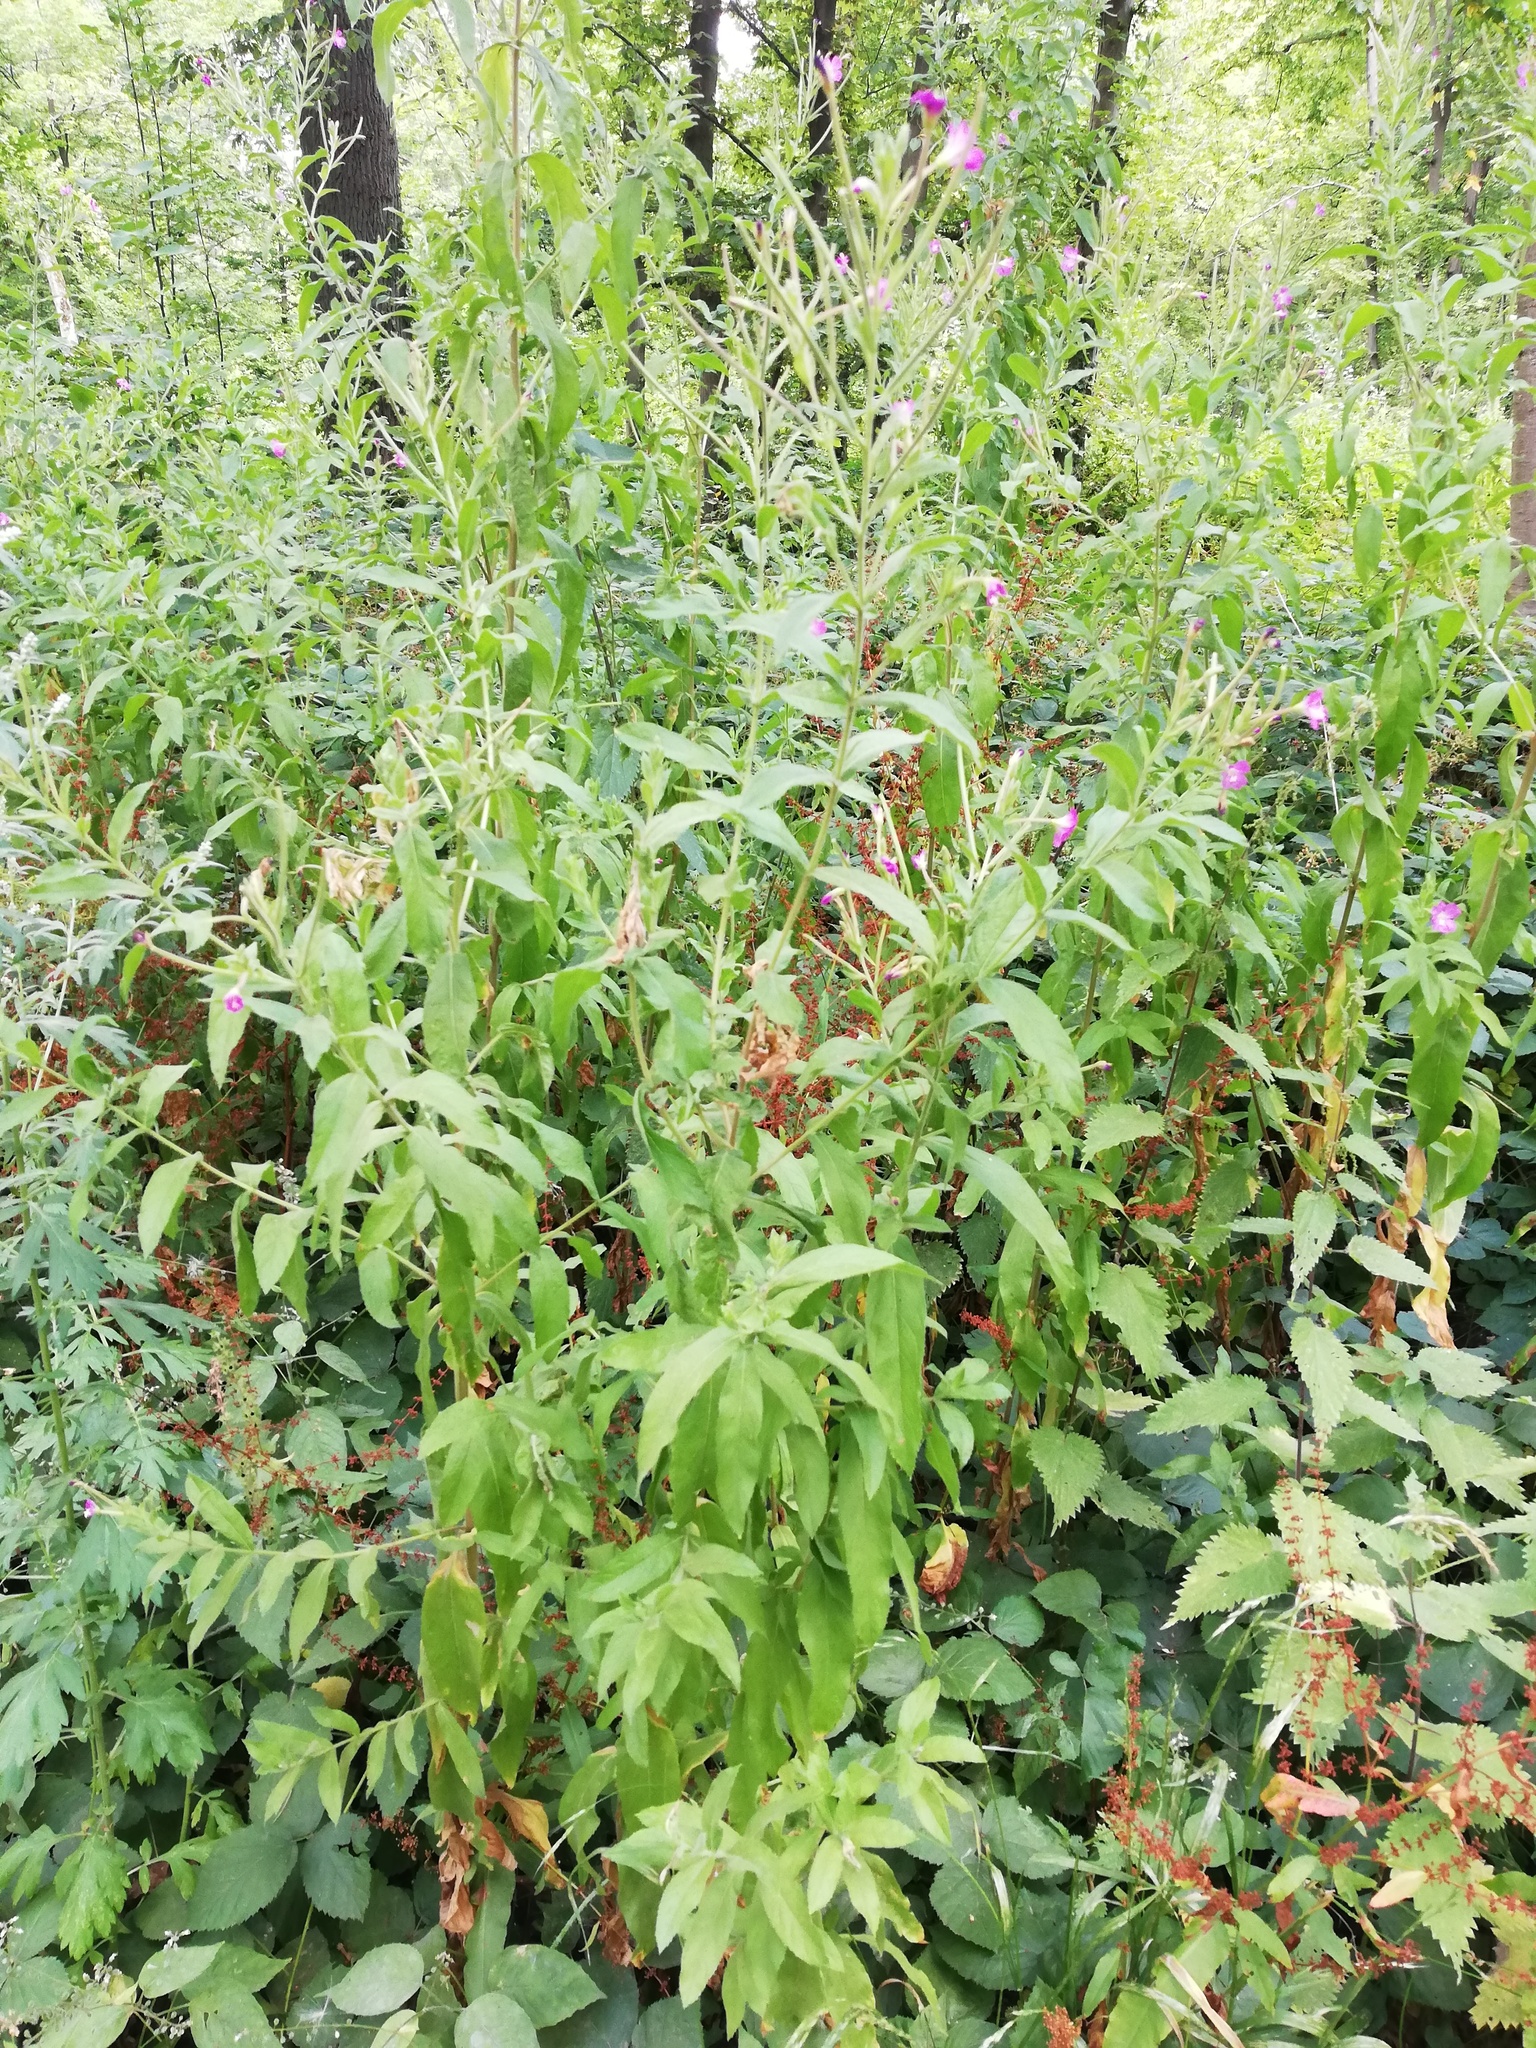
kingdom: Plantae
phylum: Tracheophyta
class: Magnoliopsida
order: Myrtales
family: Onagraceae
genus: Epilobium
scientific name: Epilobium hirsutum
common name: Great willowherb
